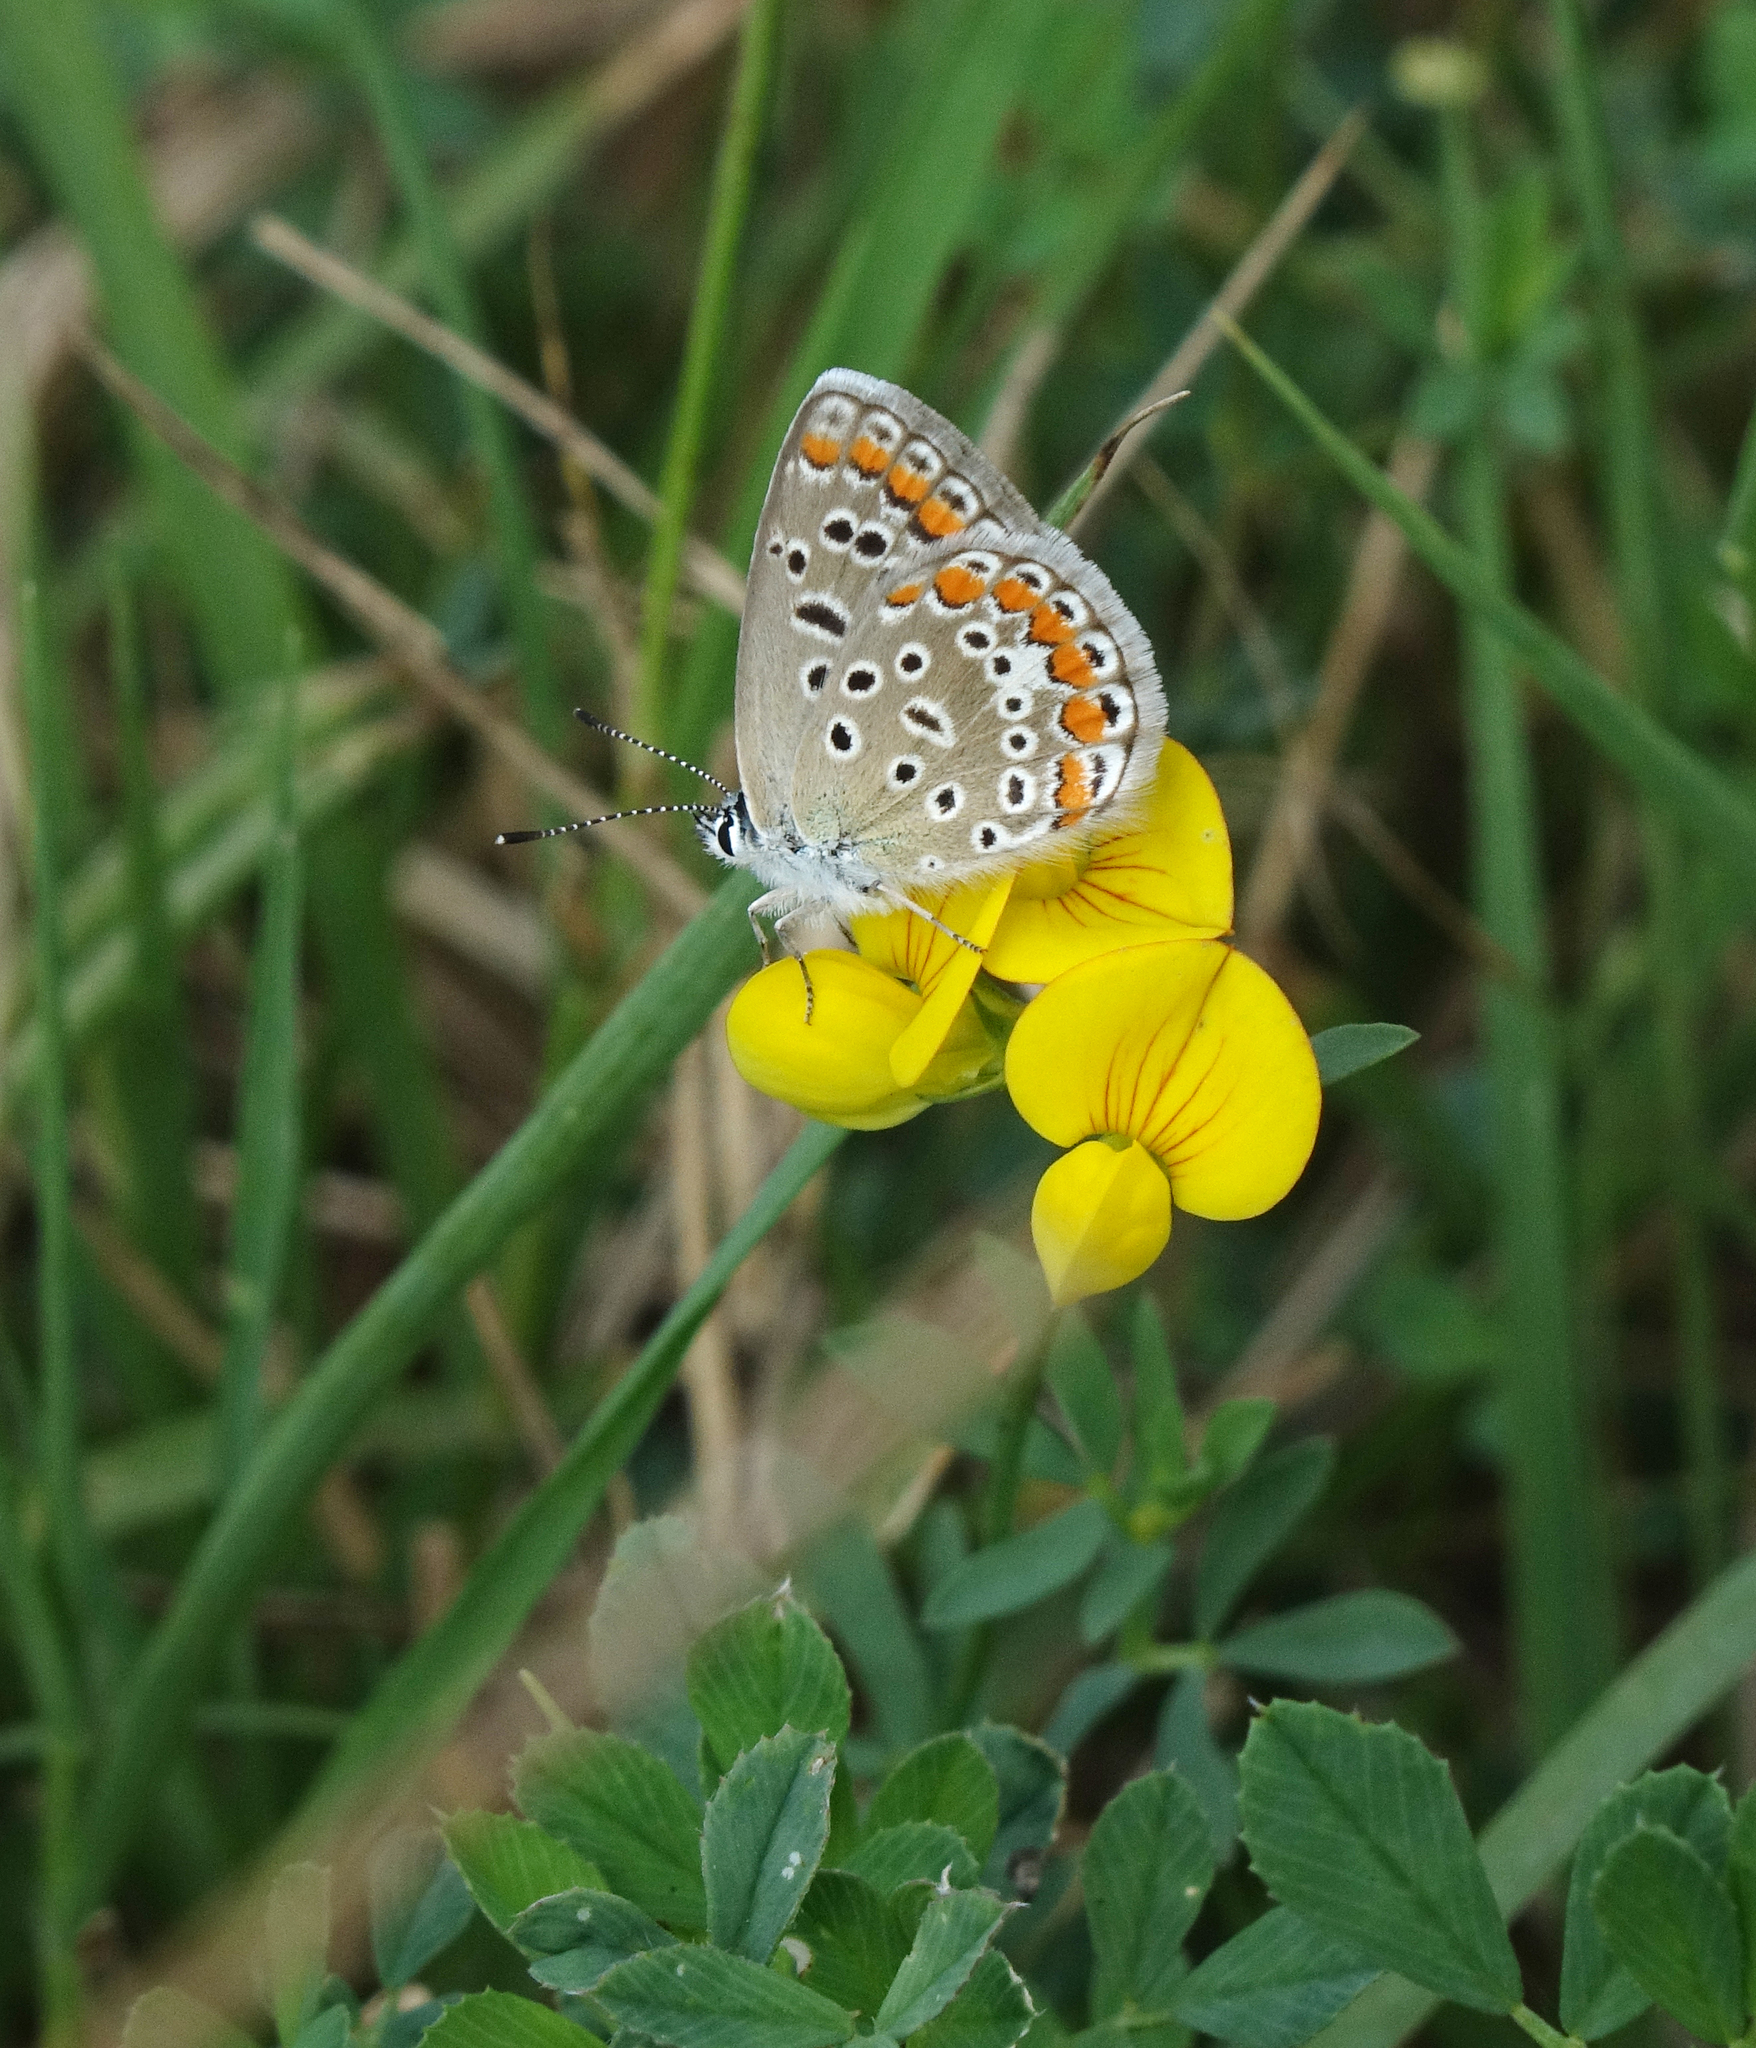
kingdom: Animalia
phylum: Arthropoda
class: Insecta
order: Lepidoptera
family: Lycaenidae
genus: Polyommatus
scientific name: Polyommatus icarus
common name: Common blue
